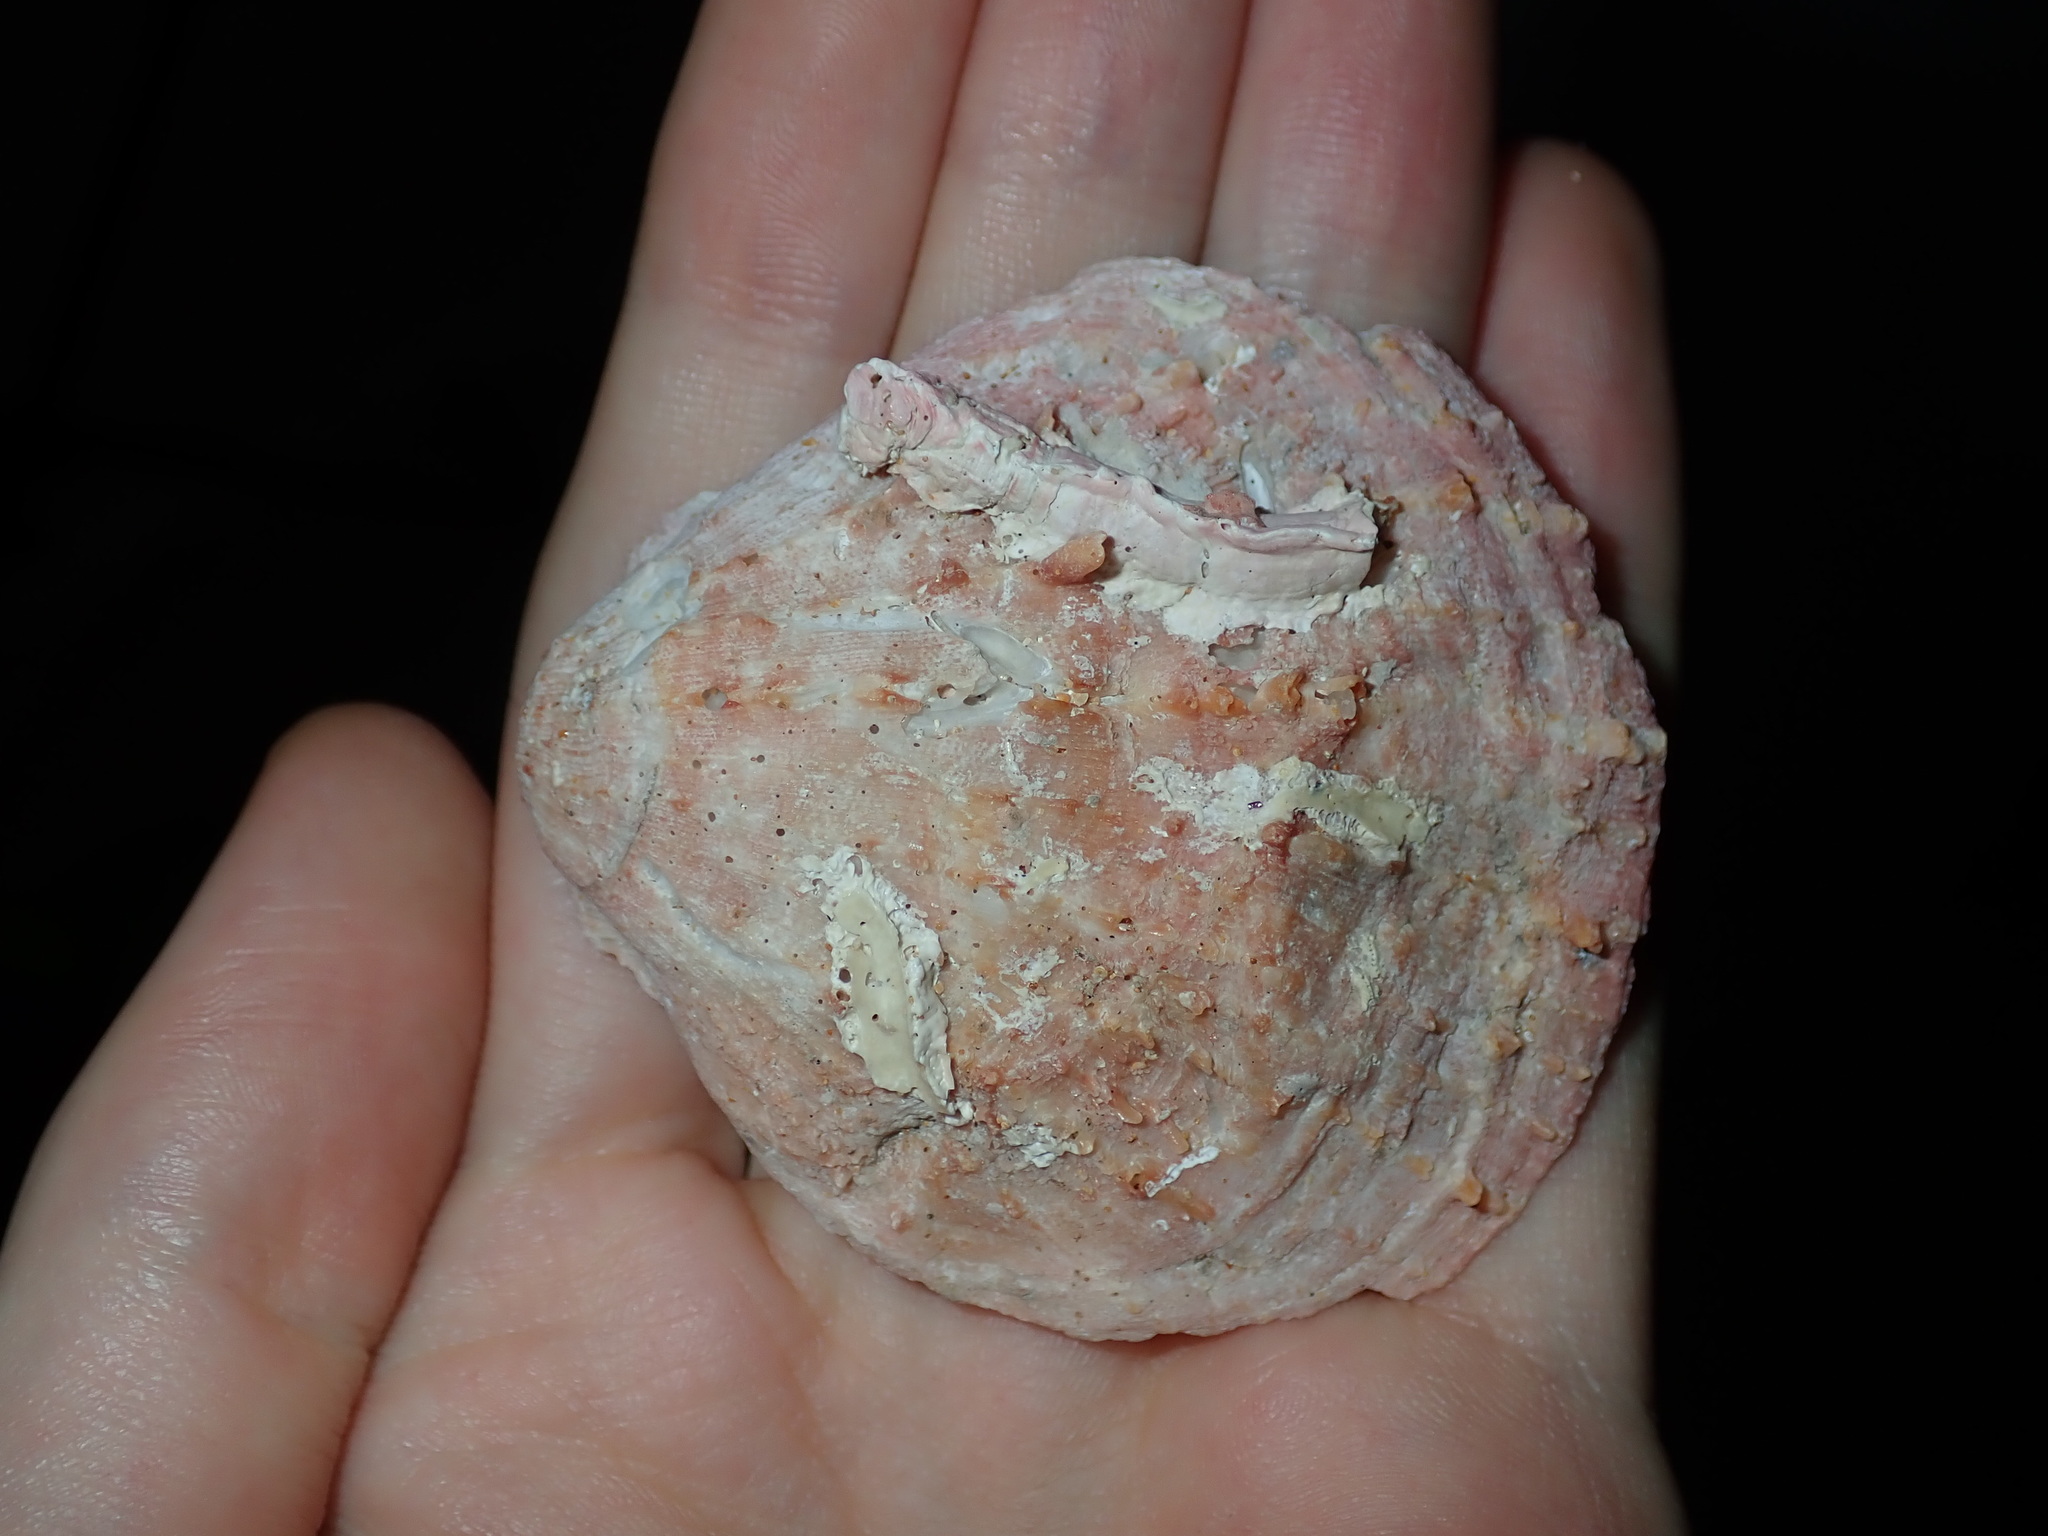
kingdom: Animalia
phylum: Mollusca
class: Bivalvia
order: Pectinida
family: Spondylidae
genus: Spondylus
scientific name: Spondylus tenellus
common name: Scarlet thorny oyster
